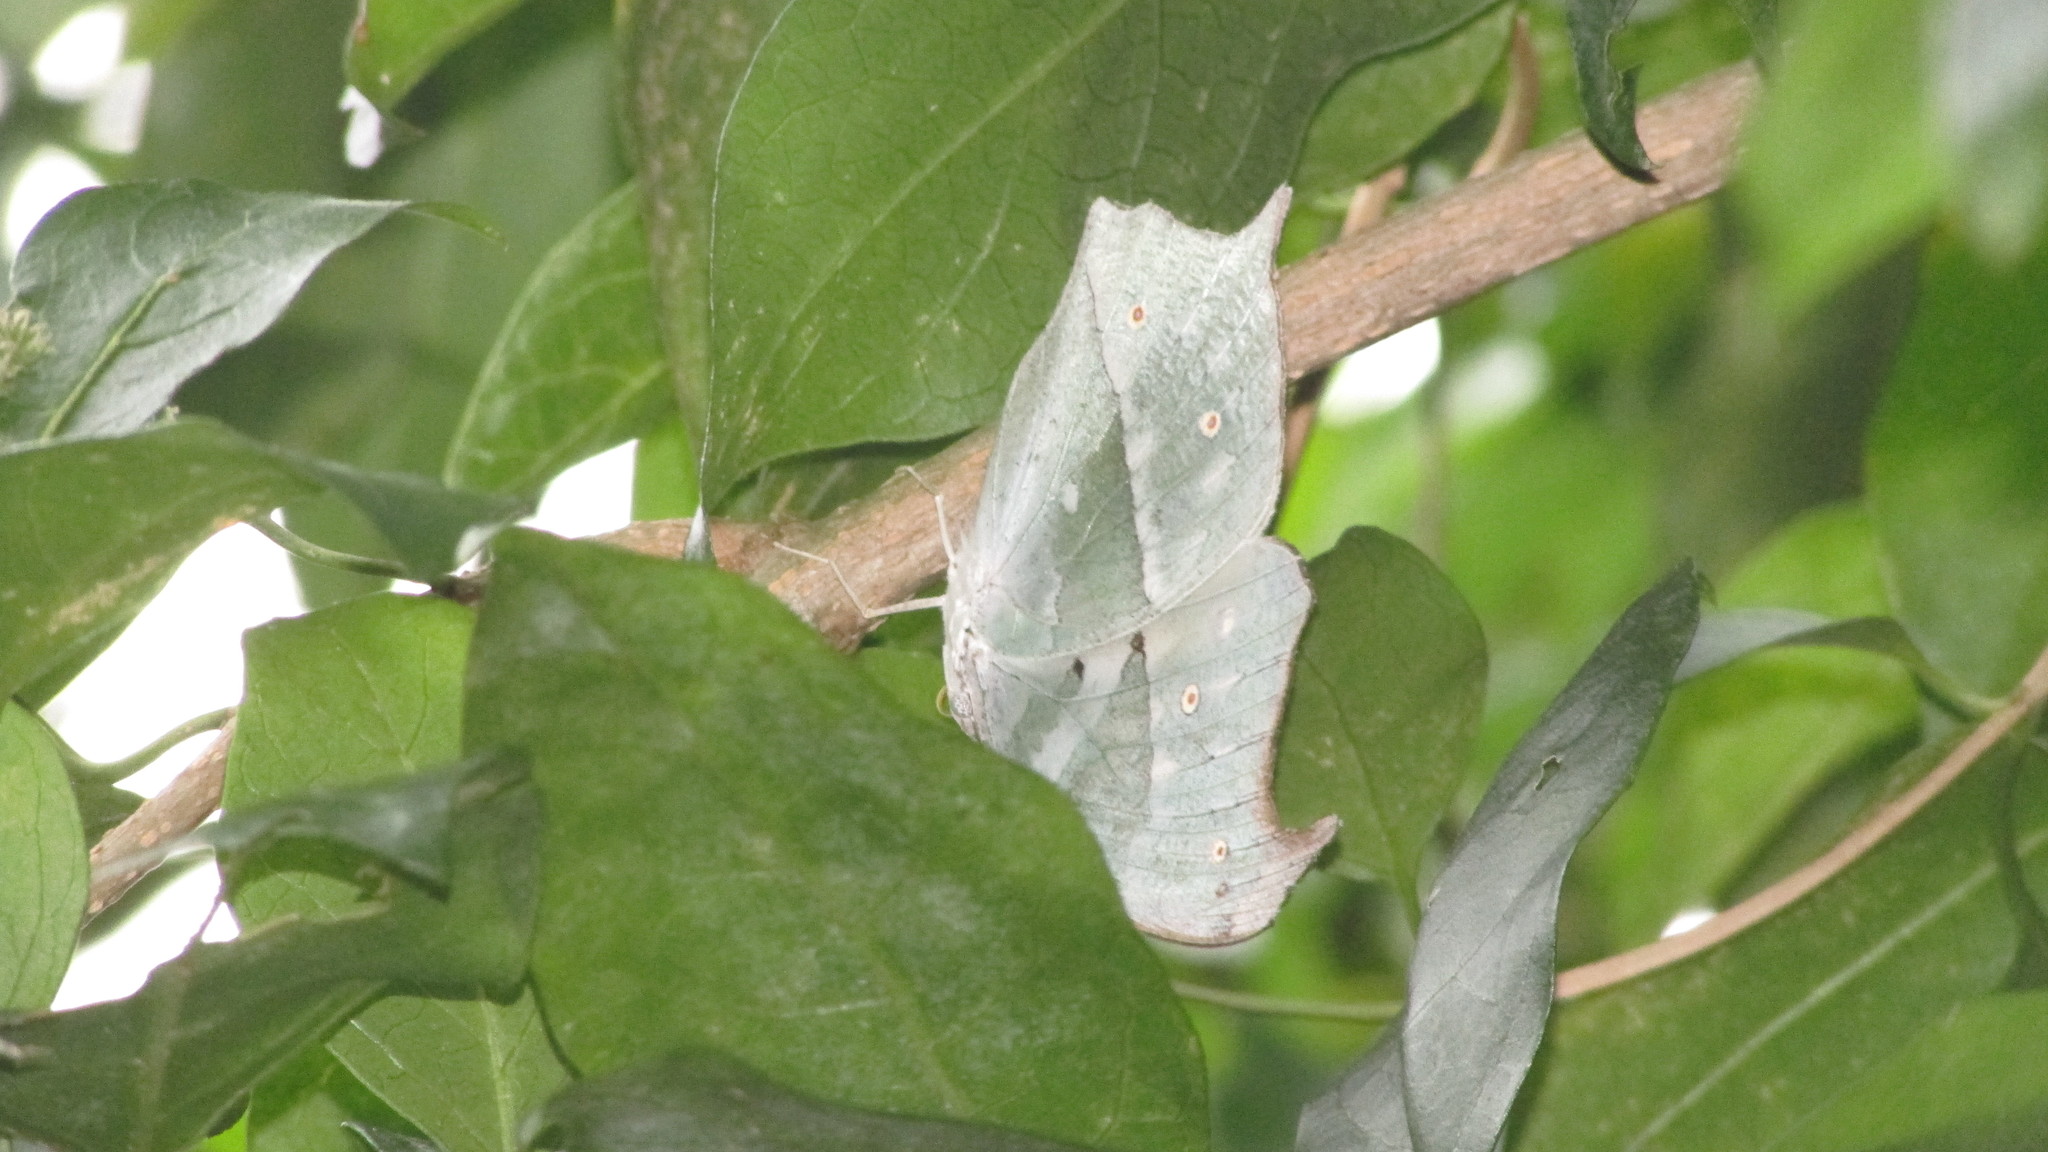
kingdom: Animalia
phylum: Arthropoda
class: Insecta
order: Lepidoptera
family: Nymphalidae
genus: Salamis
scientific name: Salamis Protogoniomorpha parhassus
